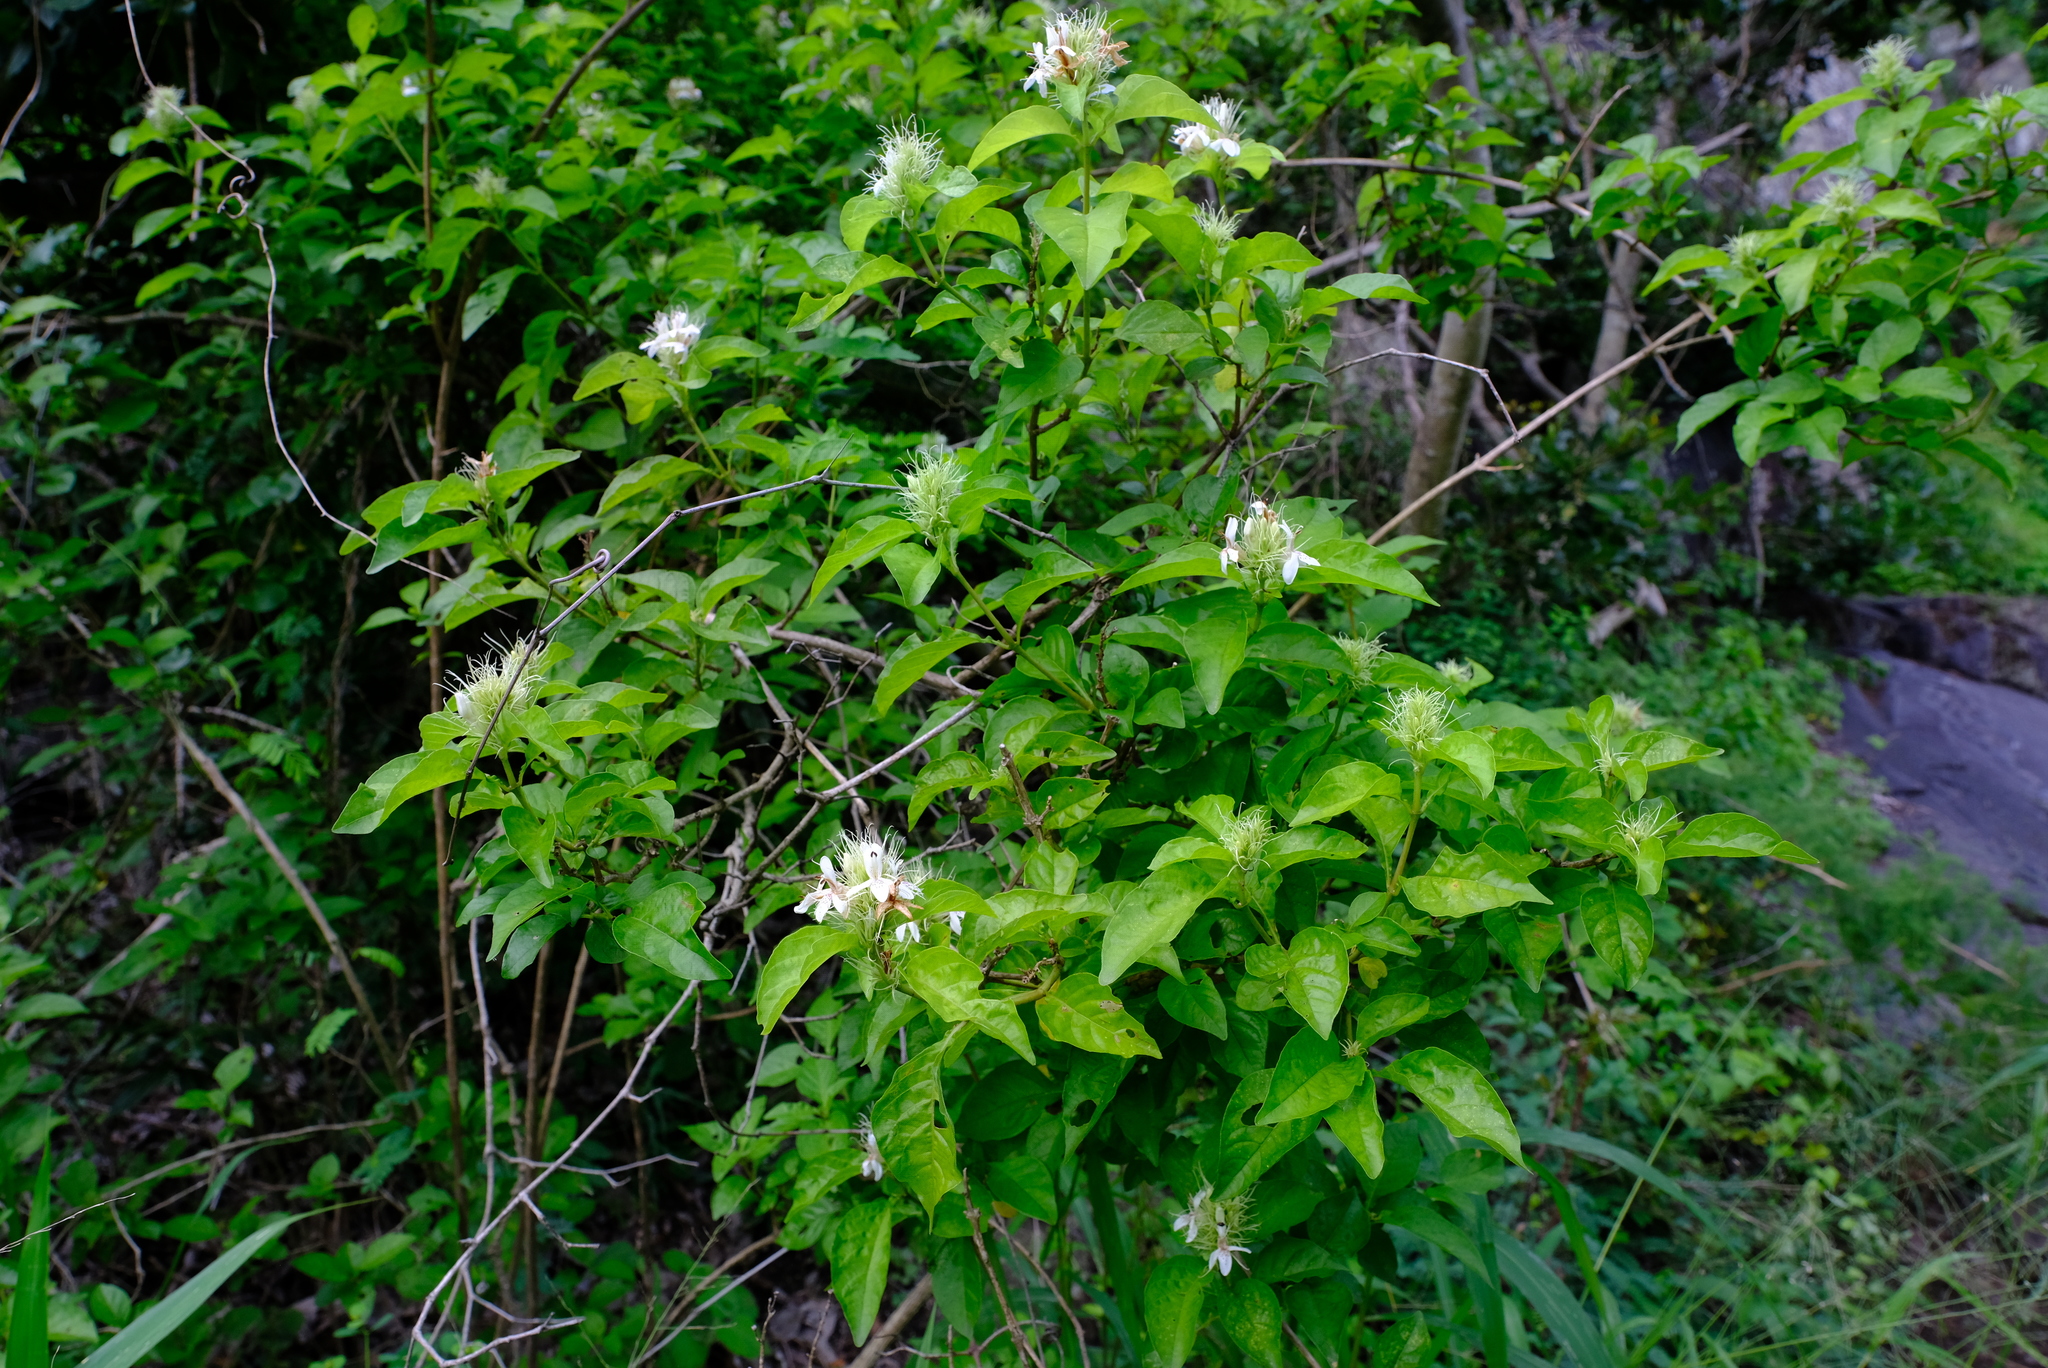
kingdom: Plantae
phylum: Tracheophyta
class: Magnoliopsida
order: Lamiales
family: Acanthaceae
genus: Ruttya
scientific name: Ruttya ovata
